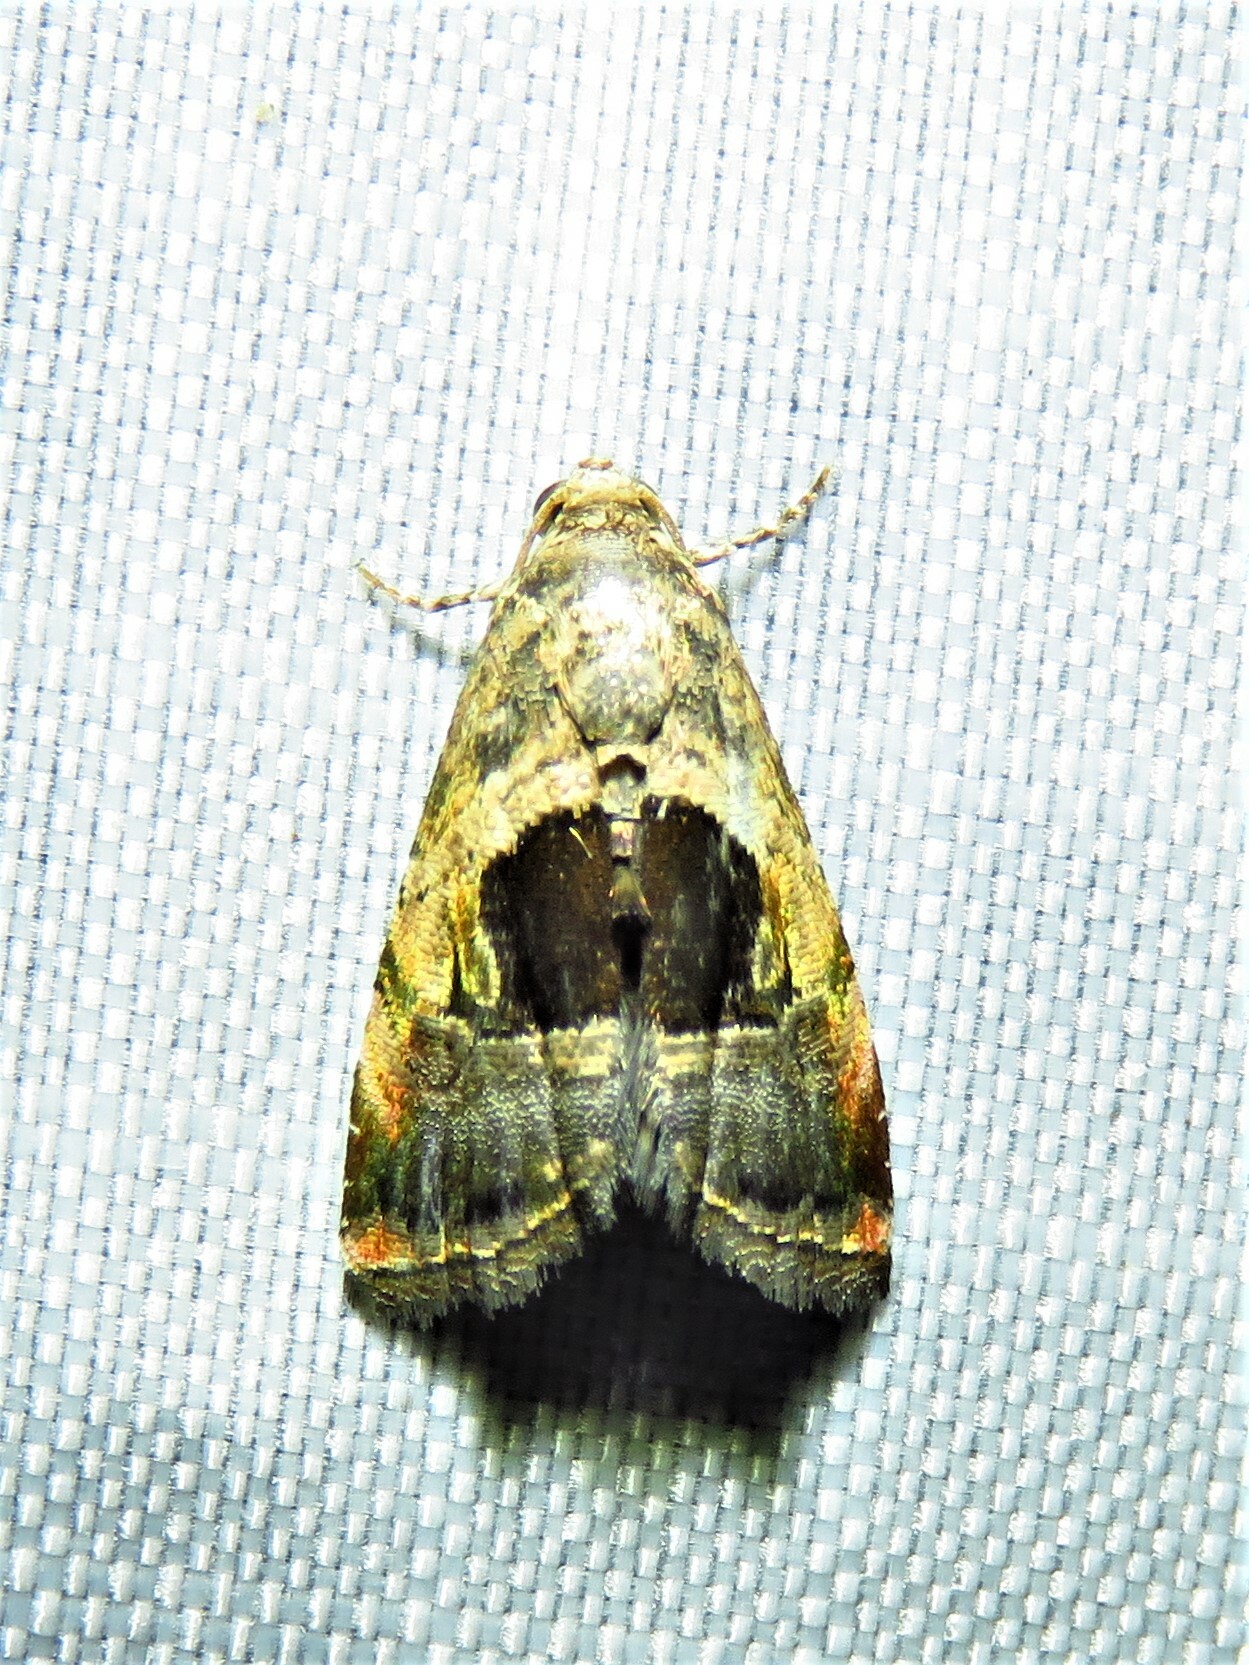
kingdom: Animalia
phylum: Arthropoda
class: Insecta
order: Lepidoptera
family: Noctuidae
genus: Tripudia
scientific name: Tripudia rectangula
